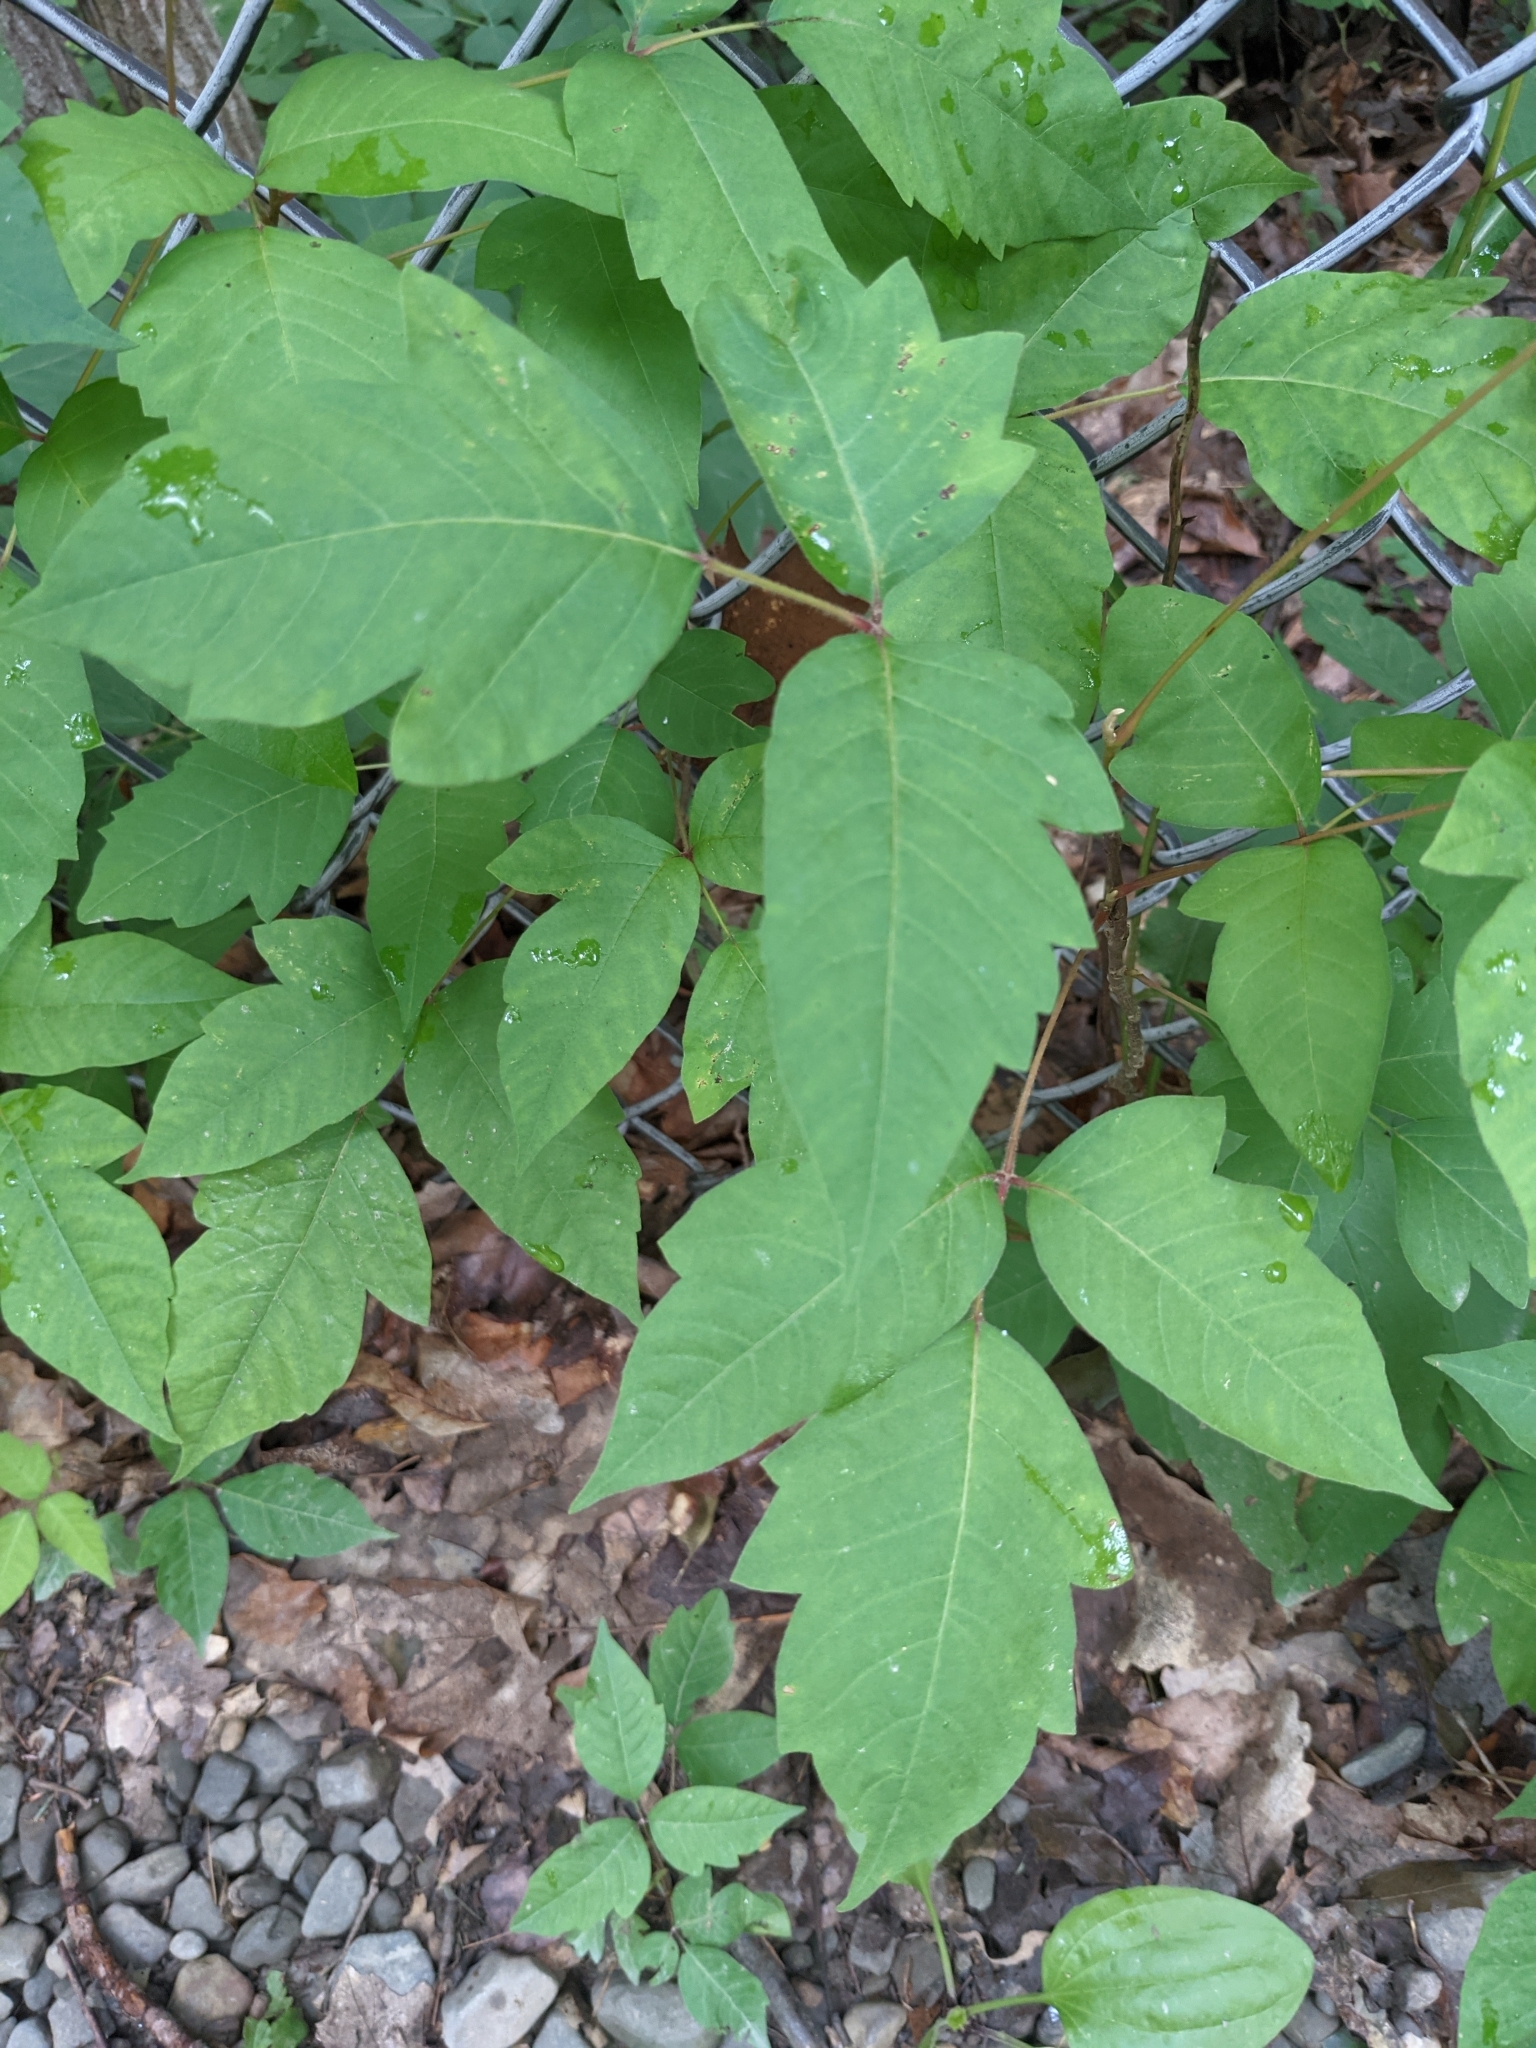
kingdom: Plantae
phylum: Tracheophyta
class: Magnoliopsida
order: Sapindales
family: Anacardiaceae
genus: Toxicodendron
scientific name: Toxicodendron radicans
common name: Poison ivy
